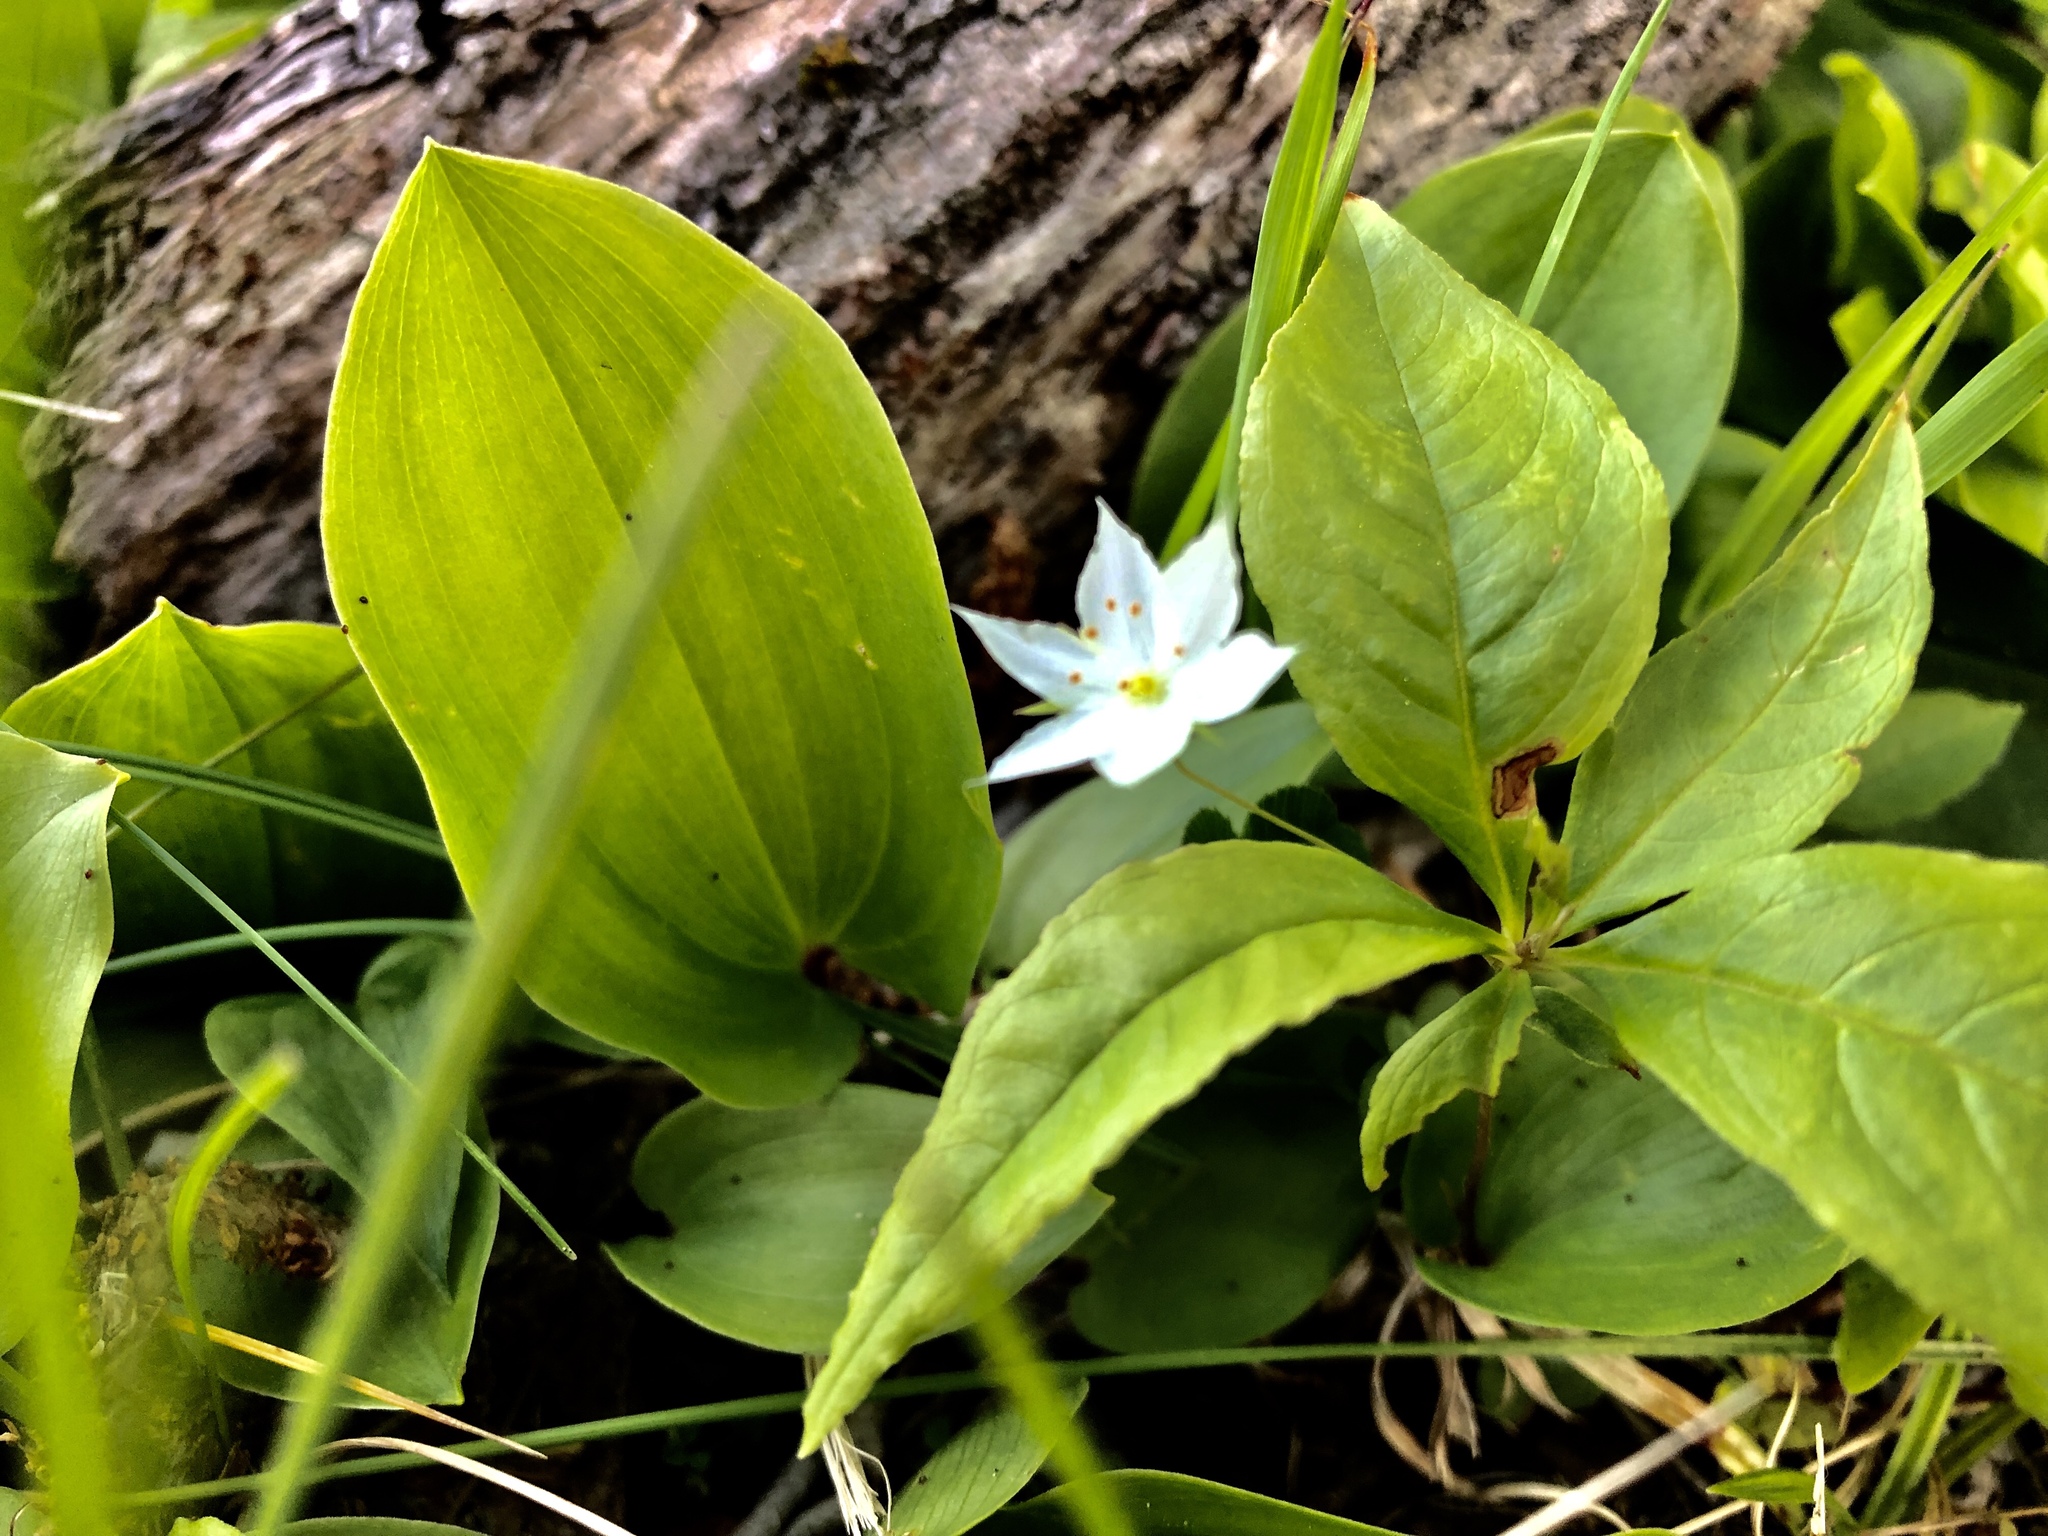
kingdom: Plantae
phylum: Tracheophyta
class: Magnoliopsida
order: Ericales
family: Primulaceae
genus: Lysimachia
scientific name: Lysimachia borealis
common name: American starflower
